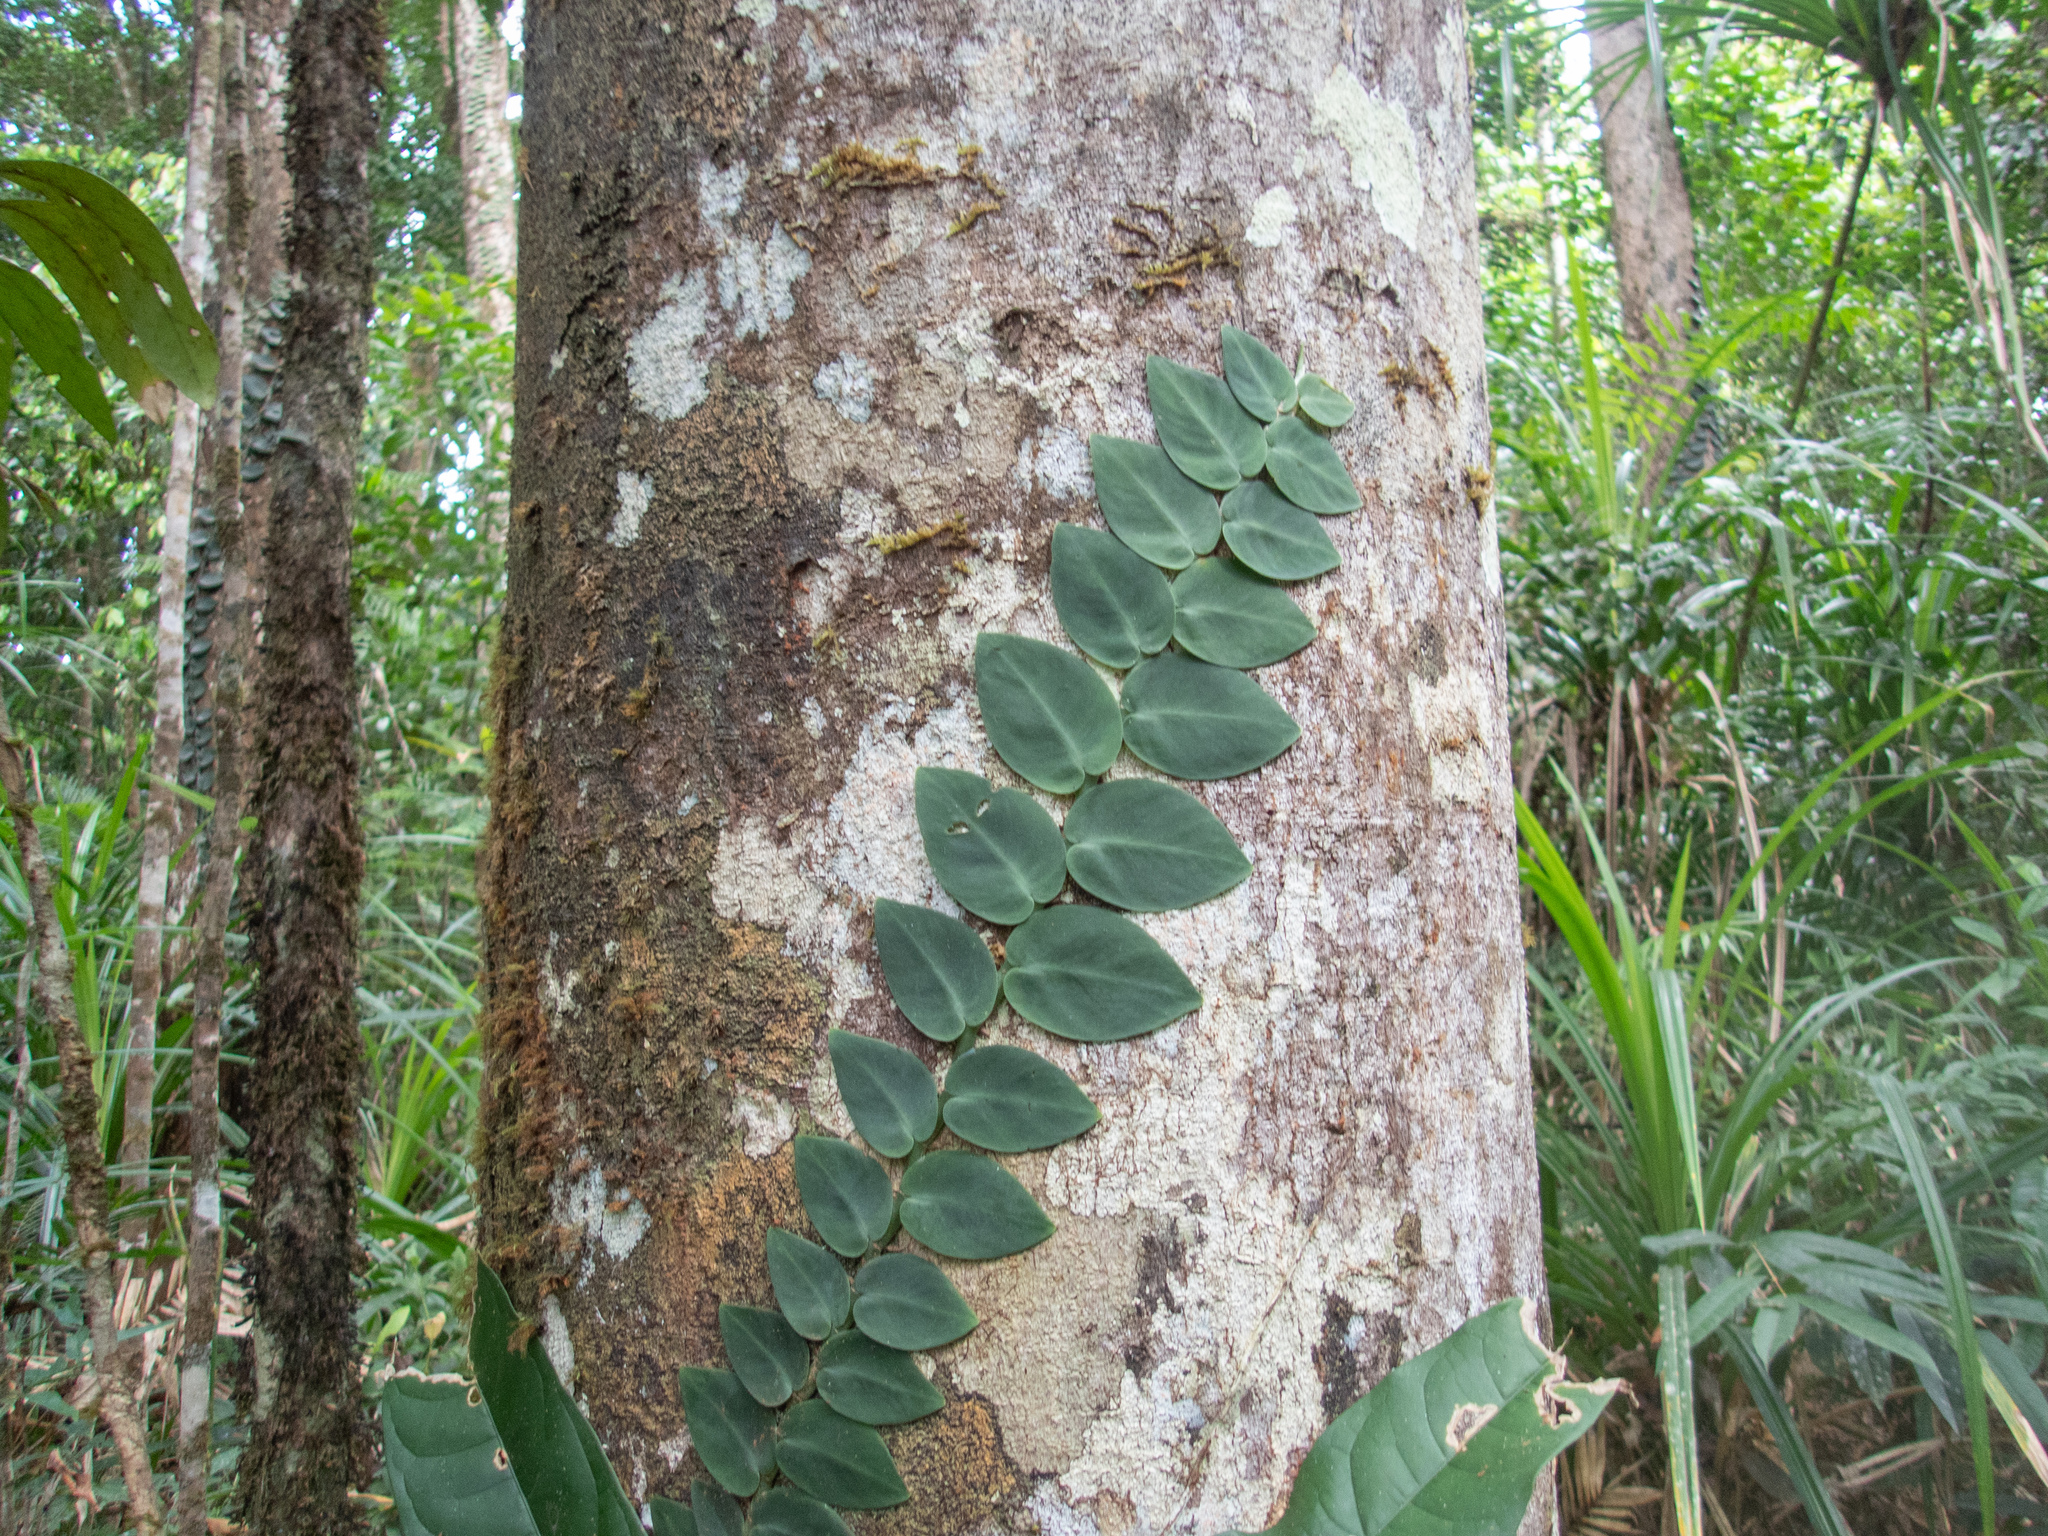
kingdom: Plantae
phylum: Tracheophyta
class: Liliopsida
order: Alismatales
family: Araceae
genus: Rhaphidophora
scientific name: Rhaphidophora hayi
